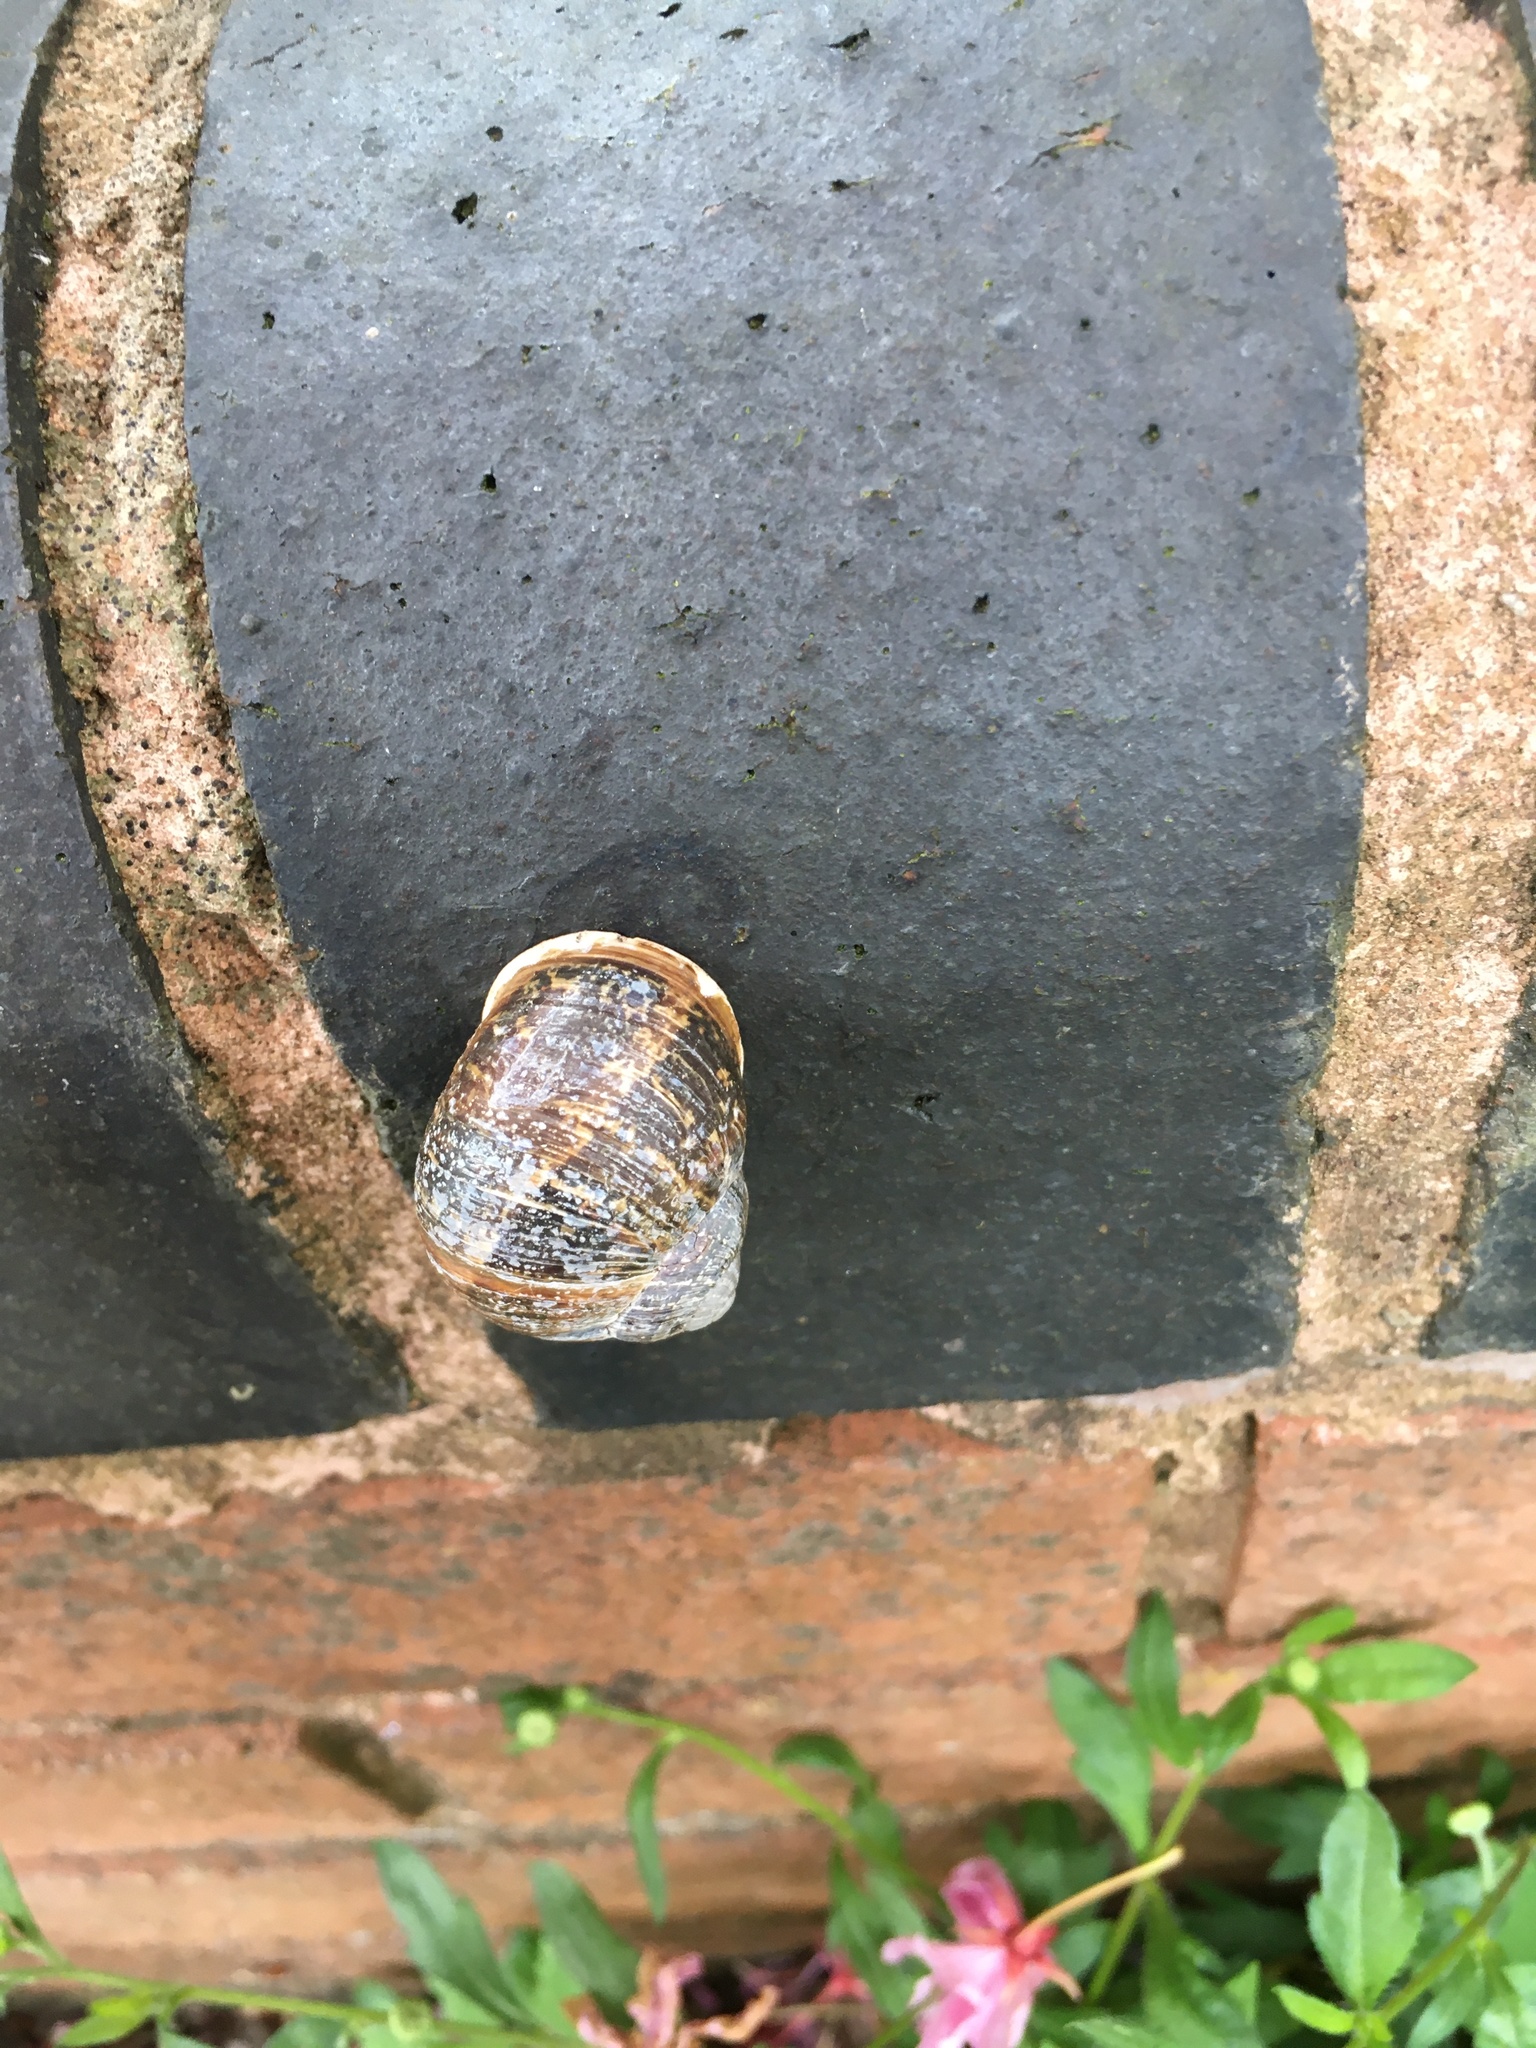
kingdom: Animalia
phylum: Mollusca
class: Gastropoda
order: Stylommatophora
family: Helicidae
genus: Cornu
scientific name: Cornu aspersum
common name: Brown garden snail
